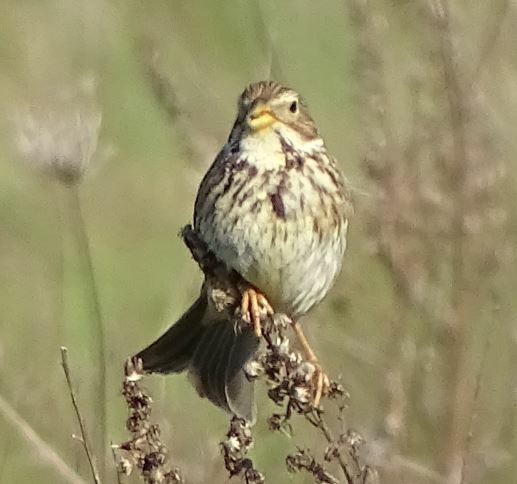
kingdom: Animalia
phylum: Chordata
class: Aves
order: Passeriformes
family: Emberizidae
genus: Emberiza
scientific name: Emberiza calandra
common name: Corn bunting
